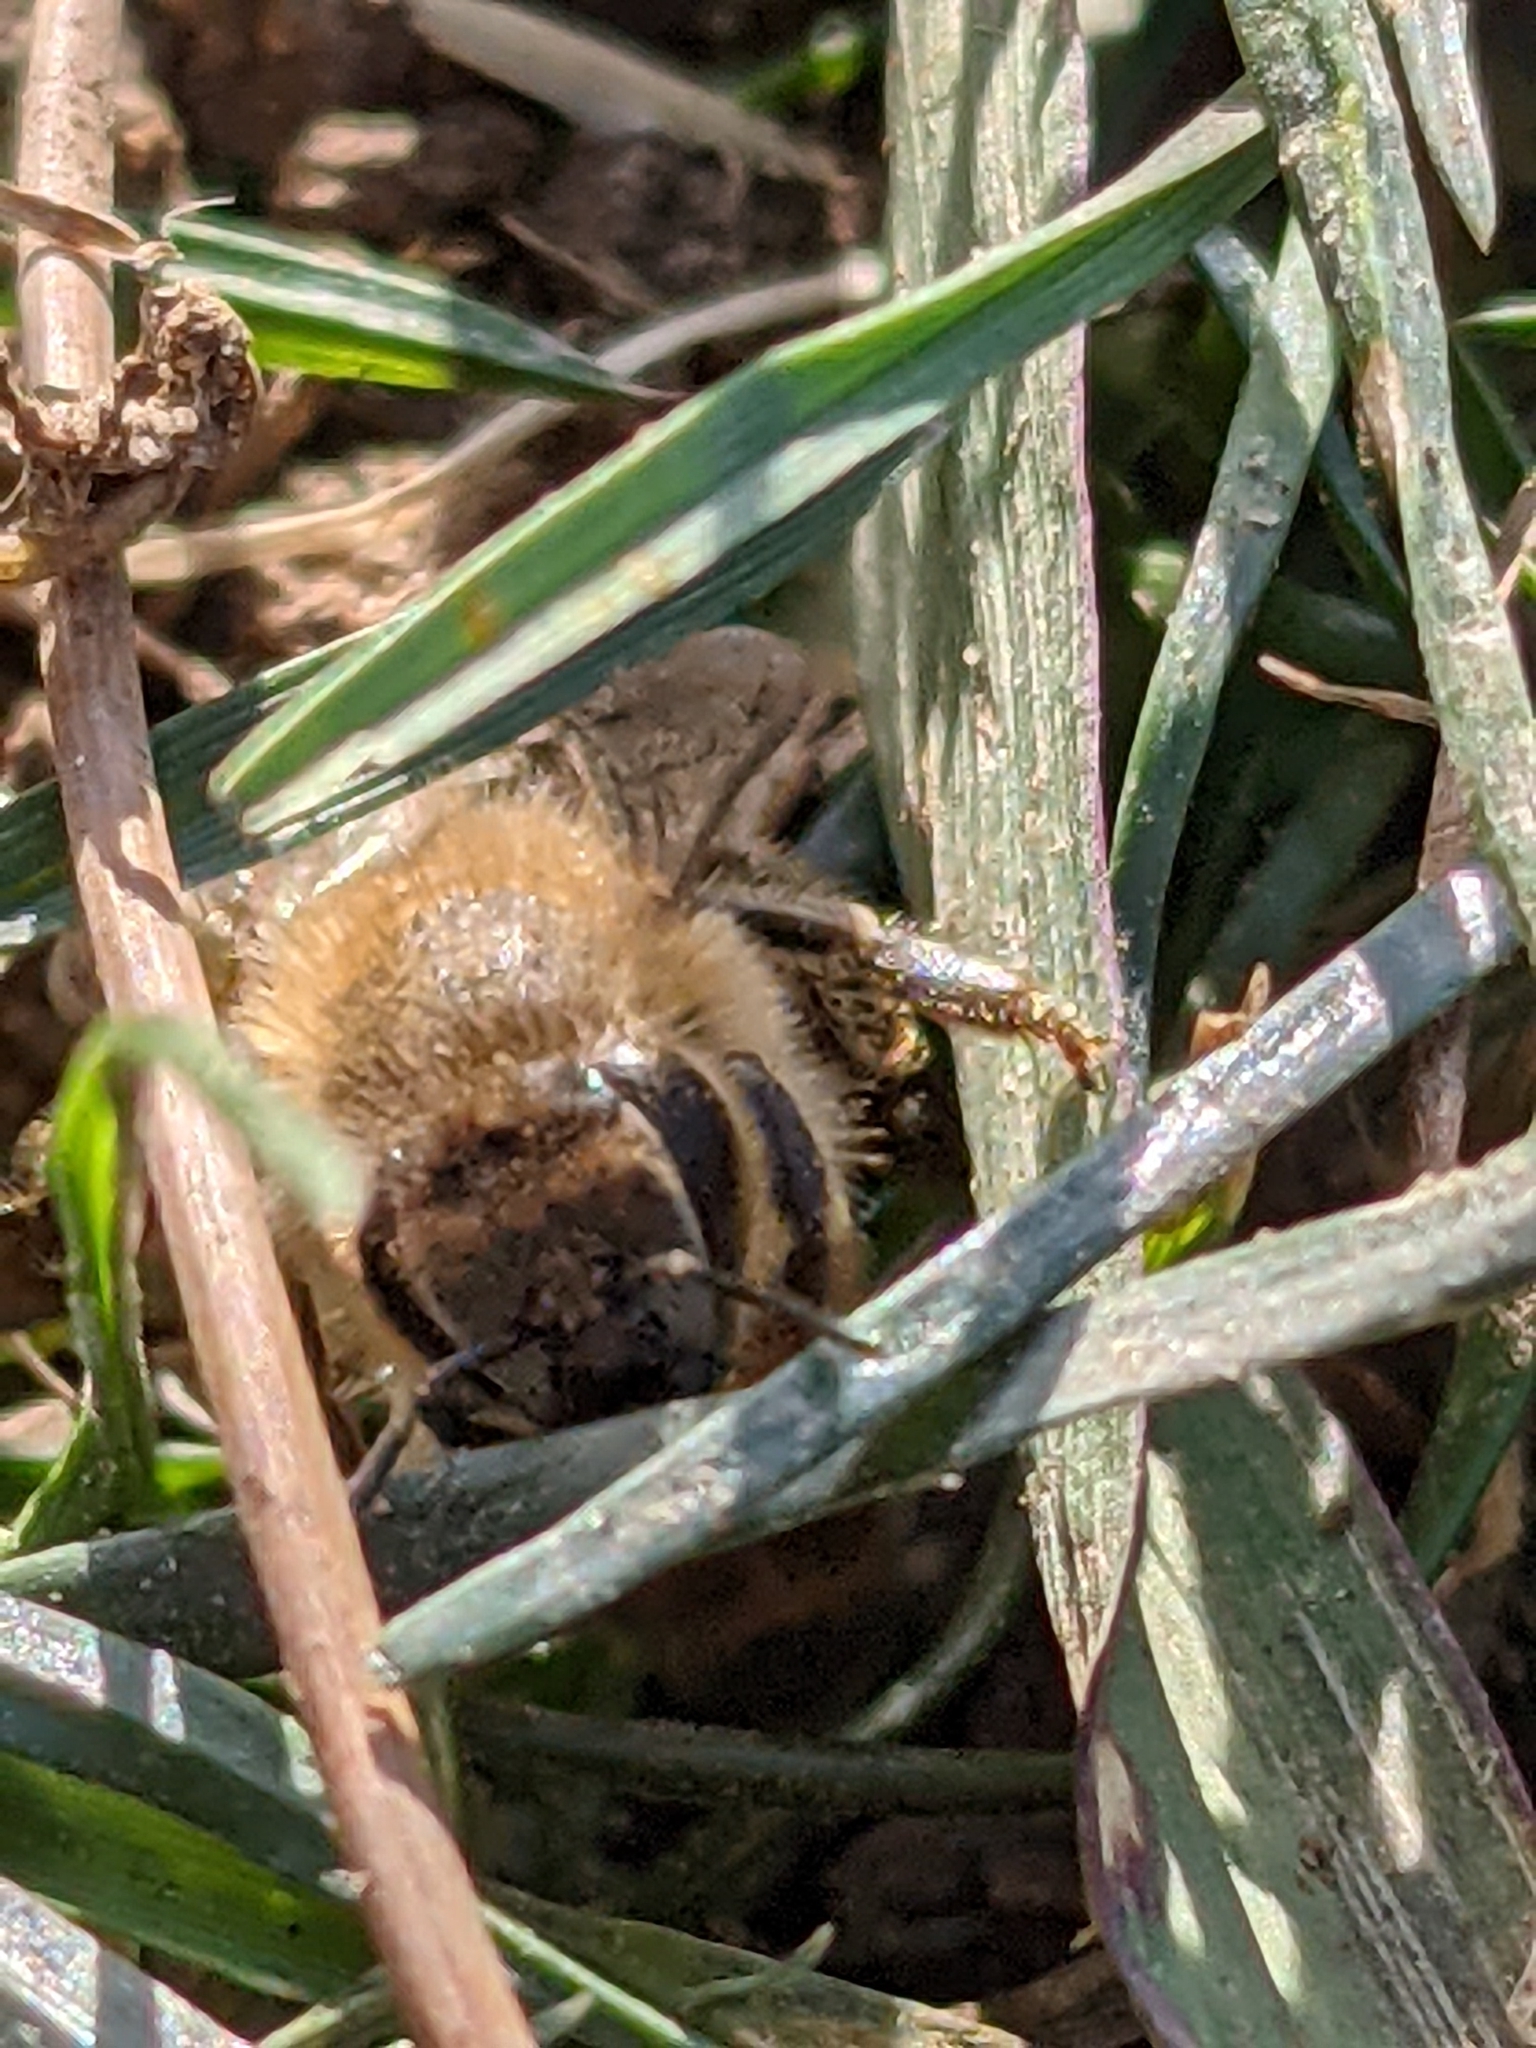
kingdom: Animalia
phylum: Arthropoda
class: Insecta
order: Hymenoptera
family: Apidae
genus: Apis
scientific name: Apis mellifera
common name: Honey bee
